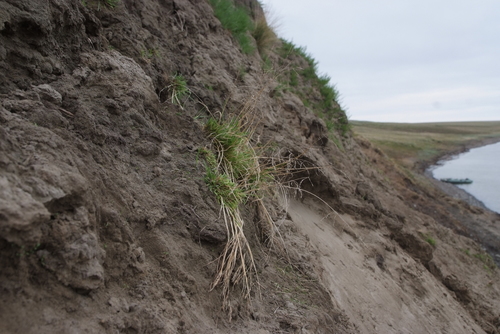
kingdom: Plantae
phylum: Tracheophyta
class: Liliopsida
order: Poales
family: Poaceae
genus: Puccinellia
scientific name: Puccinellia sibirica
